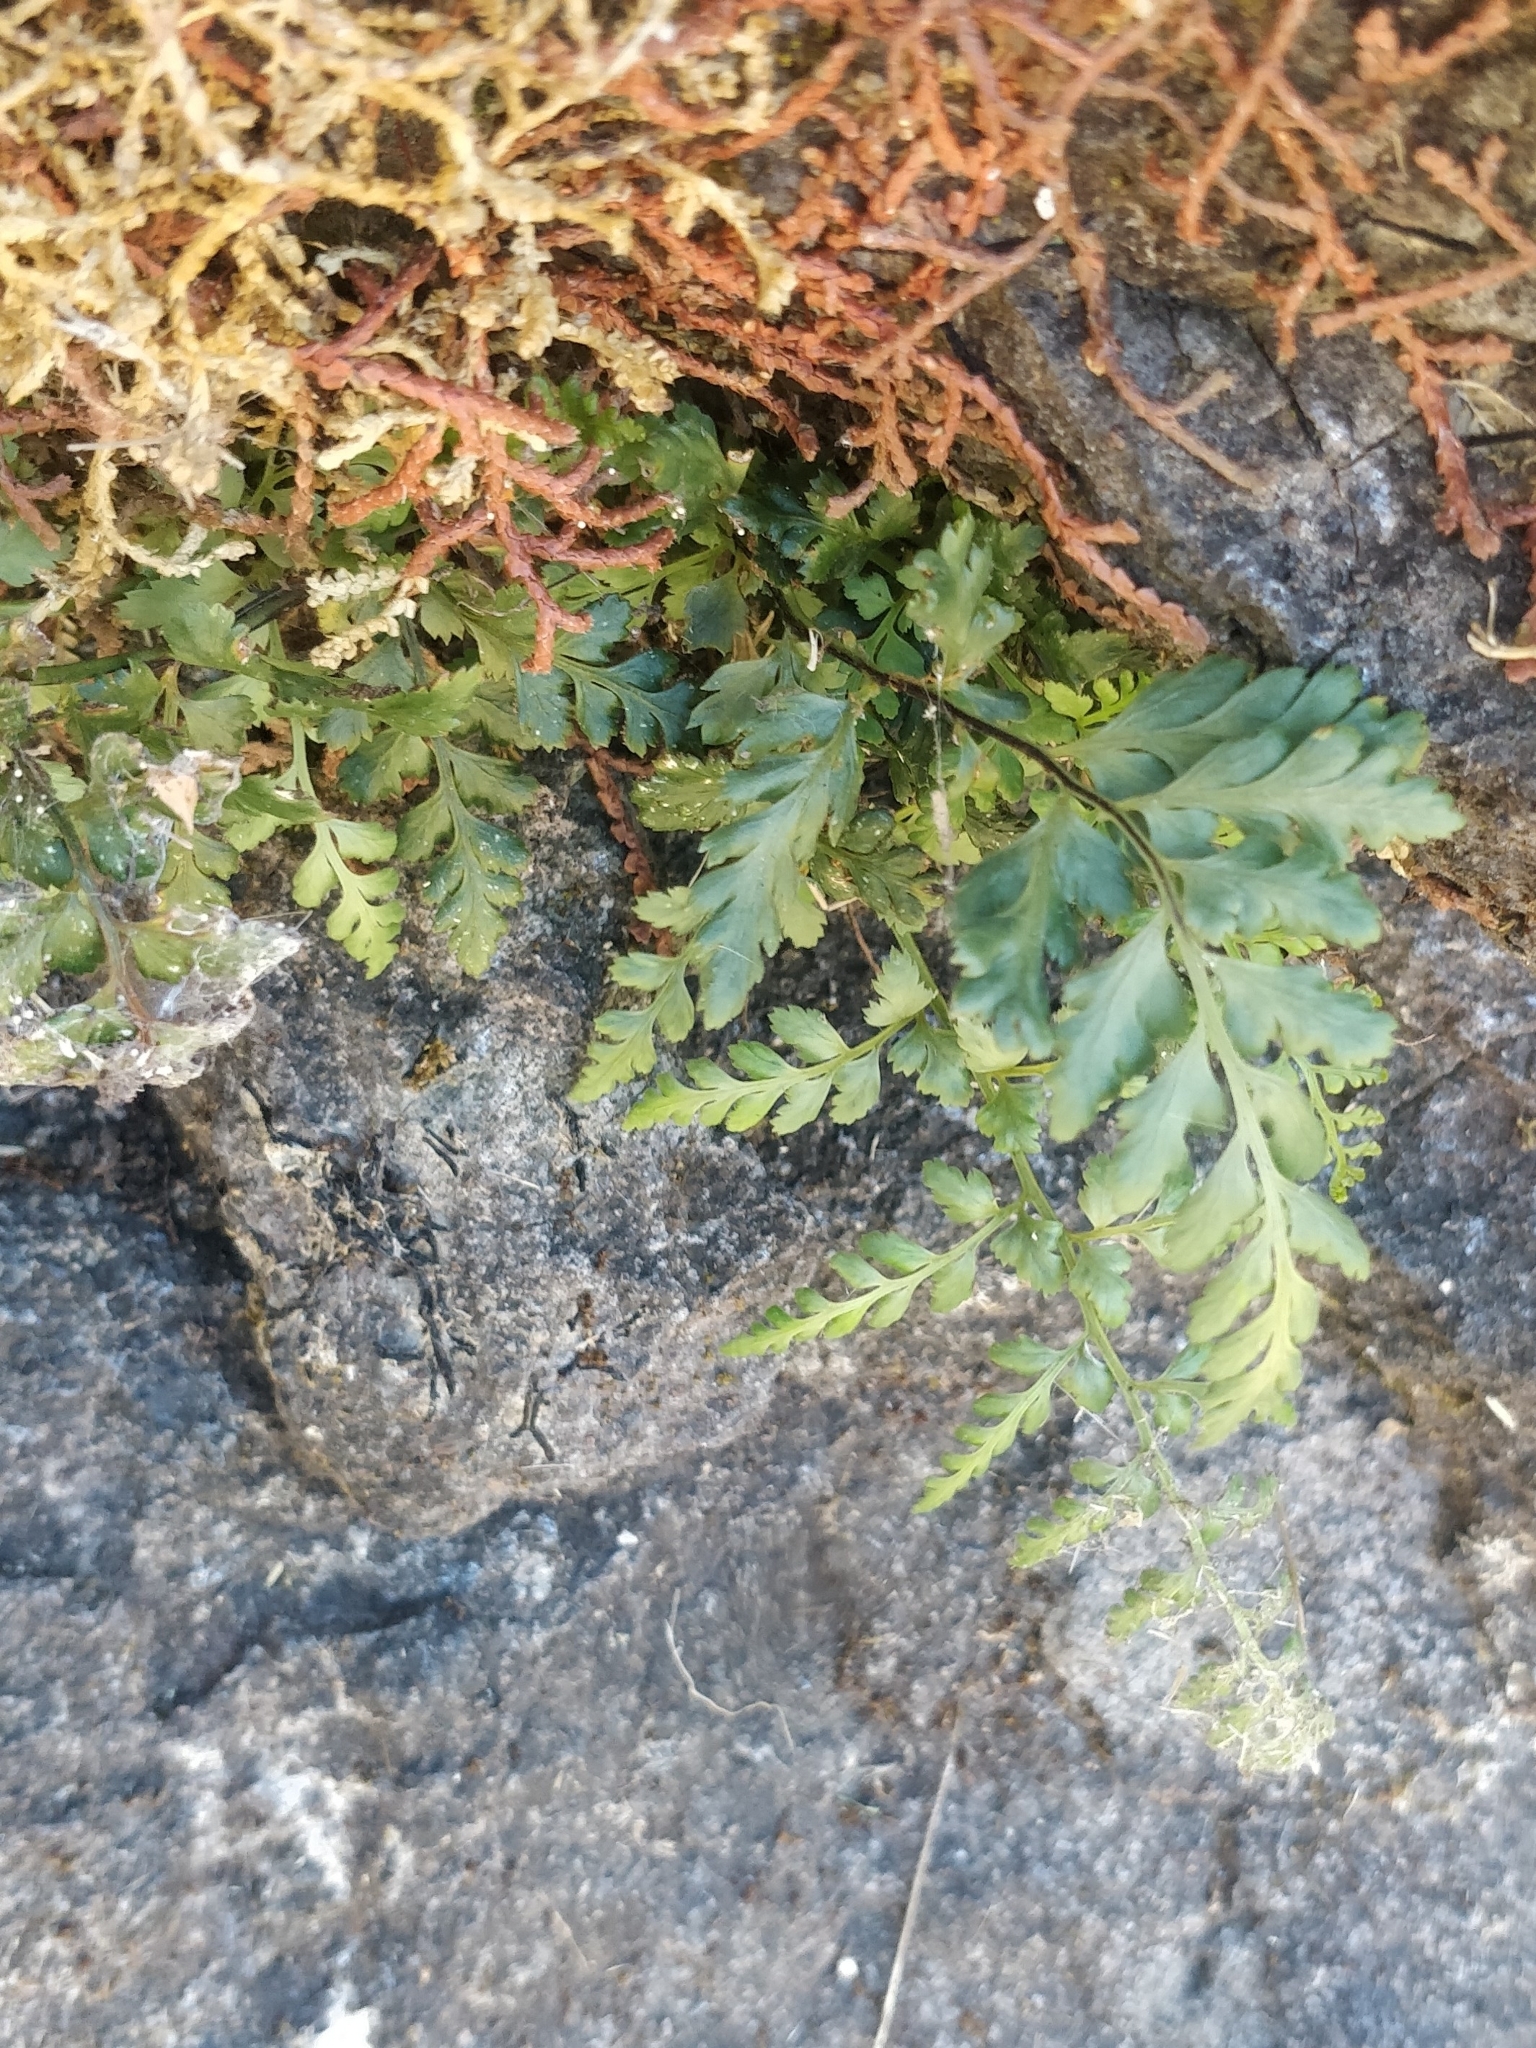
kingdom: Plantae
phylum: Tracheophyta
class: Polypodiopsida
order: Polypodiales
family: Aspleniaceae
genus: Asplenium
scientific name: Asplenium obovatum
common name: Lanceolate spleenwort
